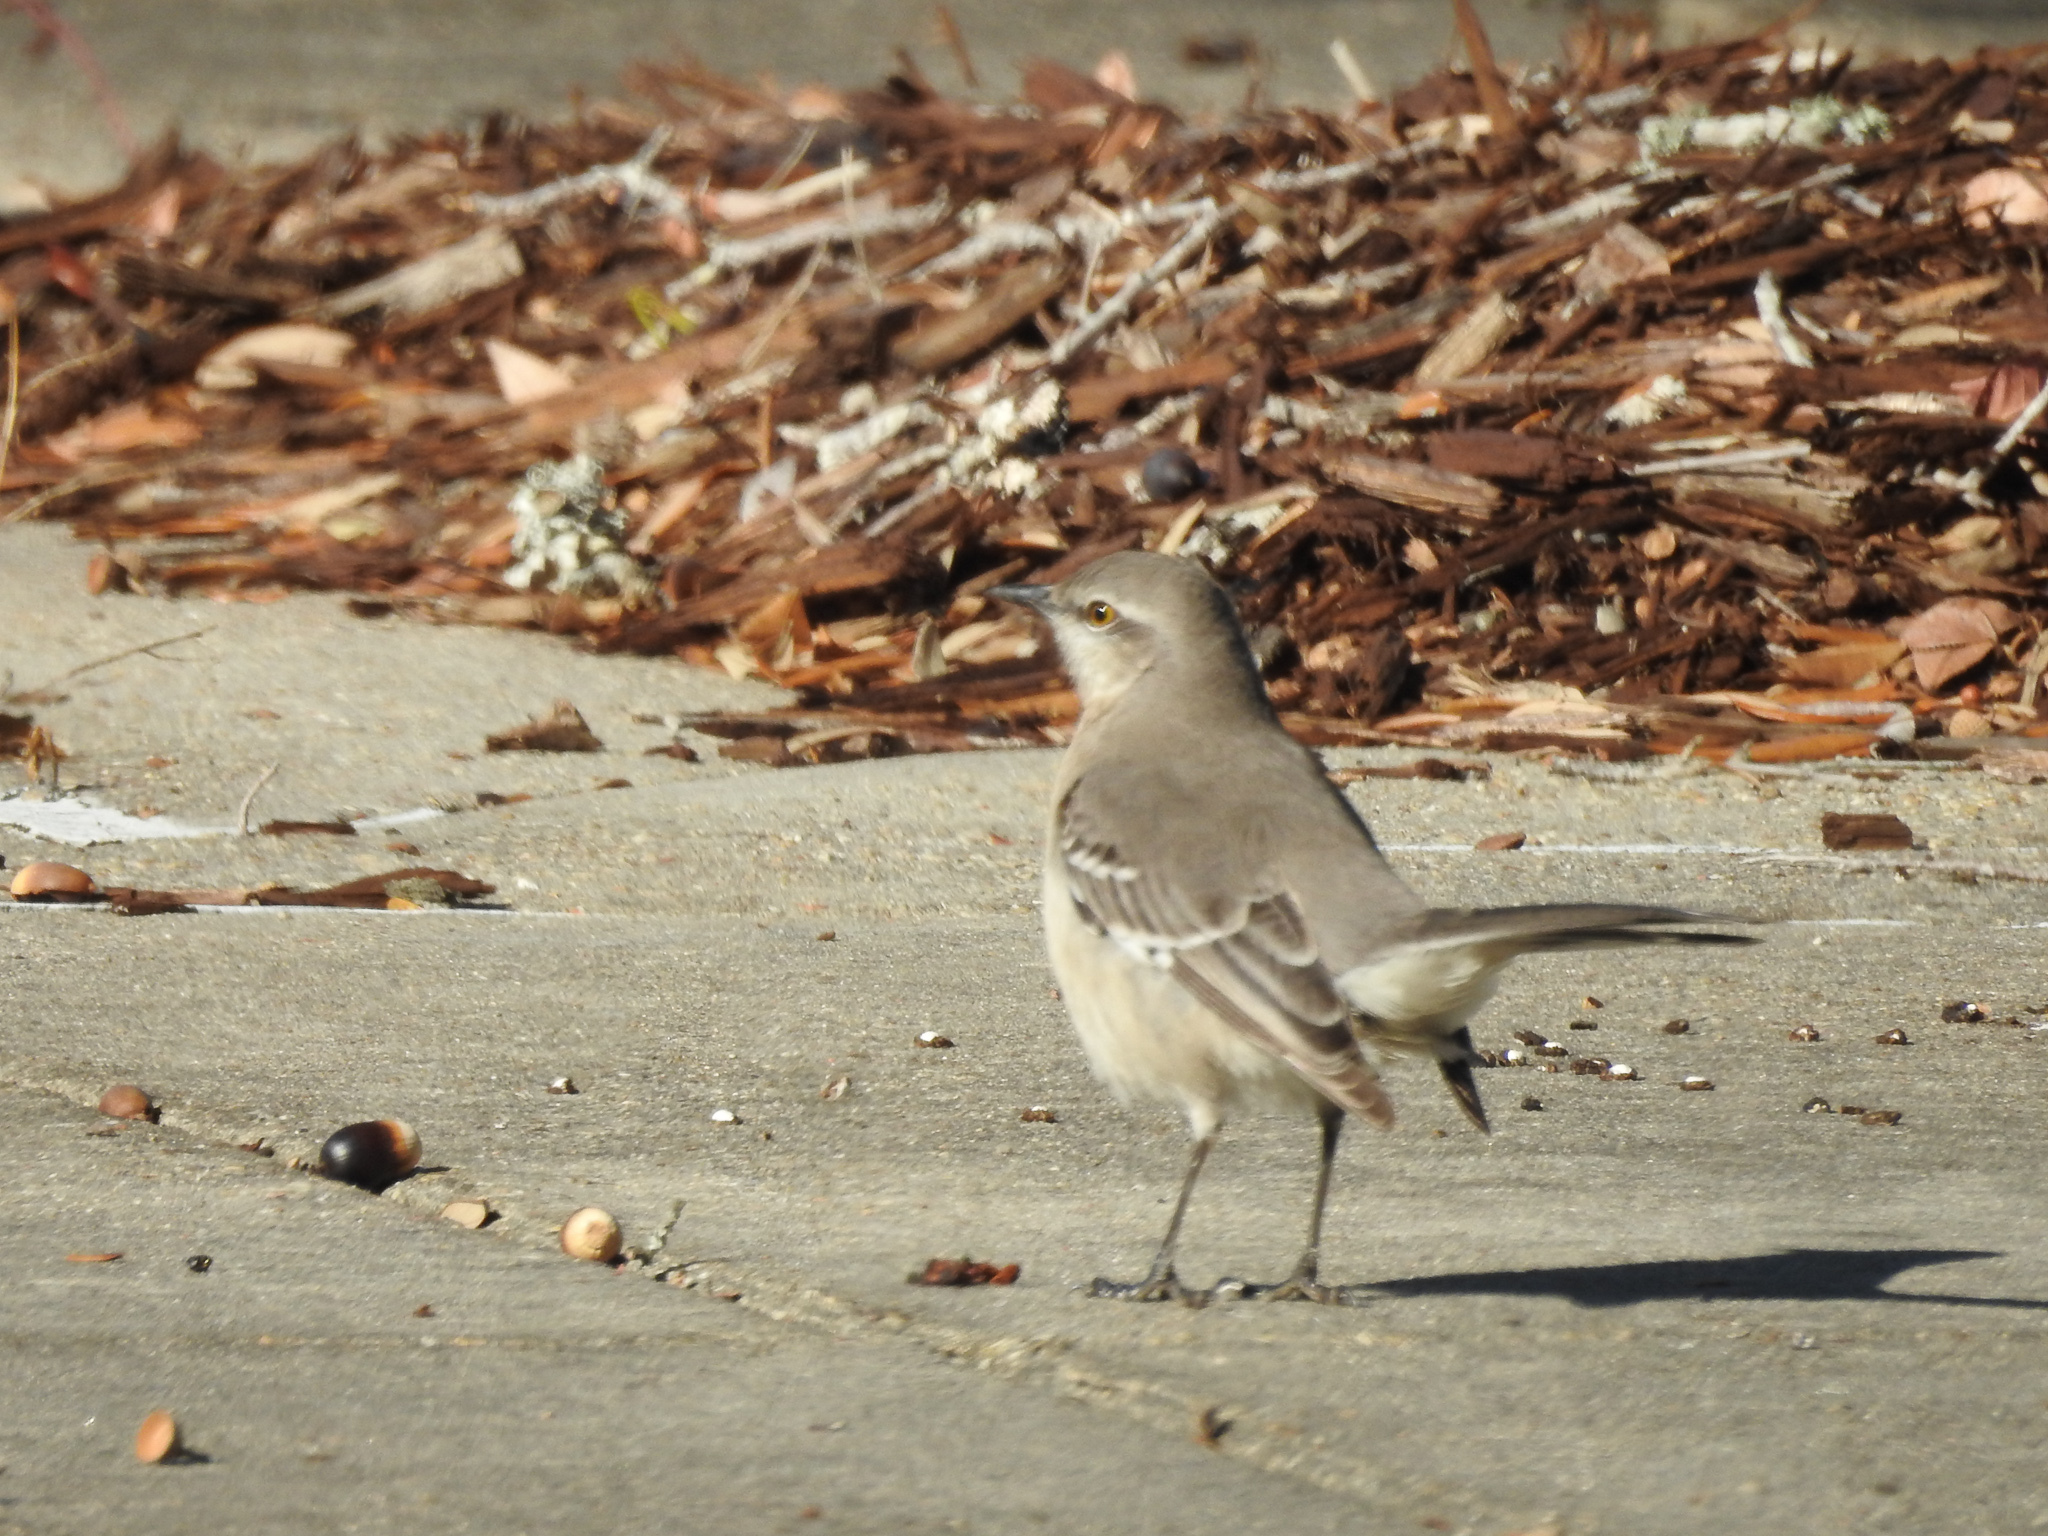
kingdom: Animalia
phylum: Chordata
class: Aves
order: Passeriformes
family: Mimidae
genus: Mimus
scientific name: Mimus polyglottos
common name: Northern mockingbird
